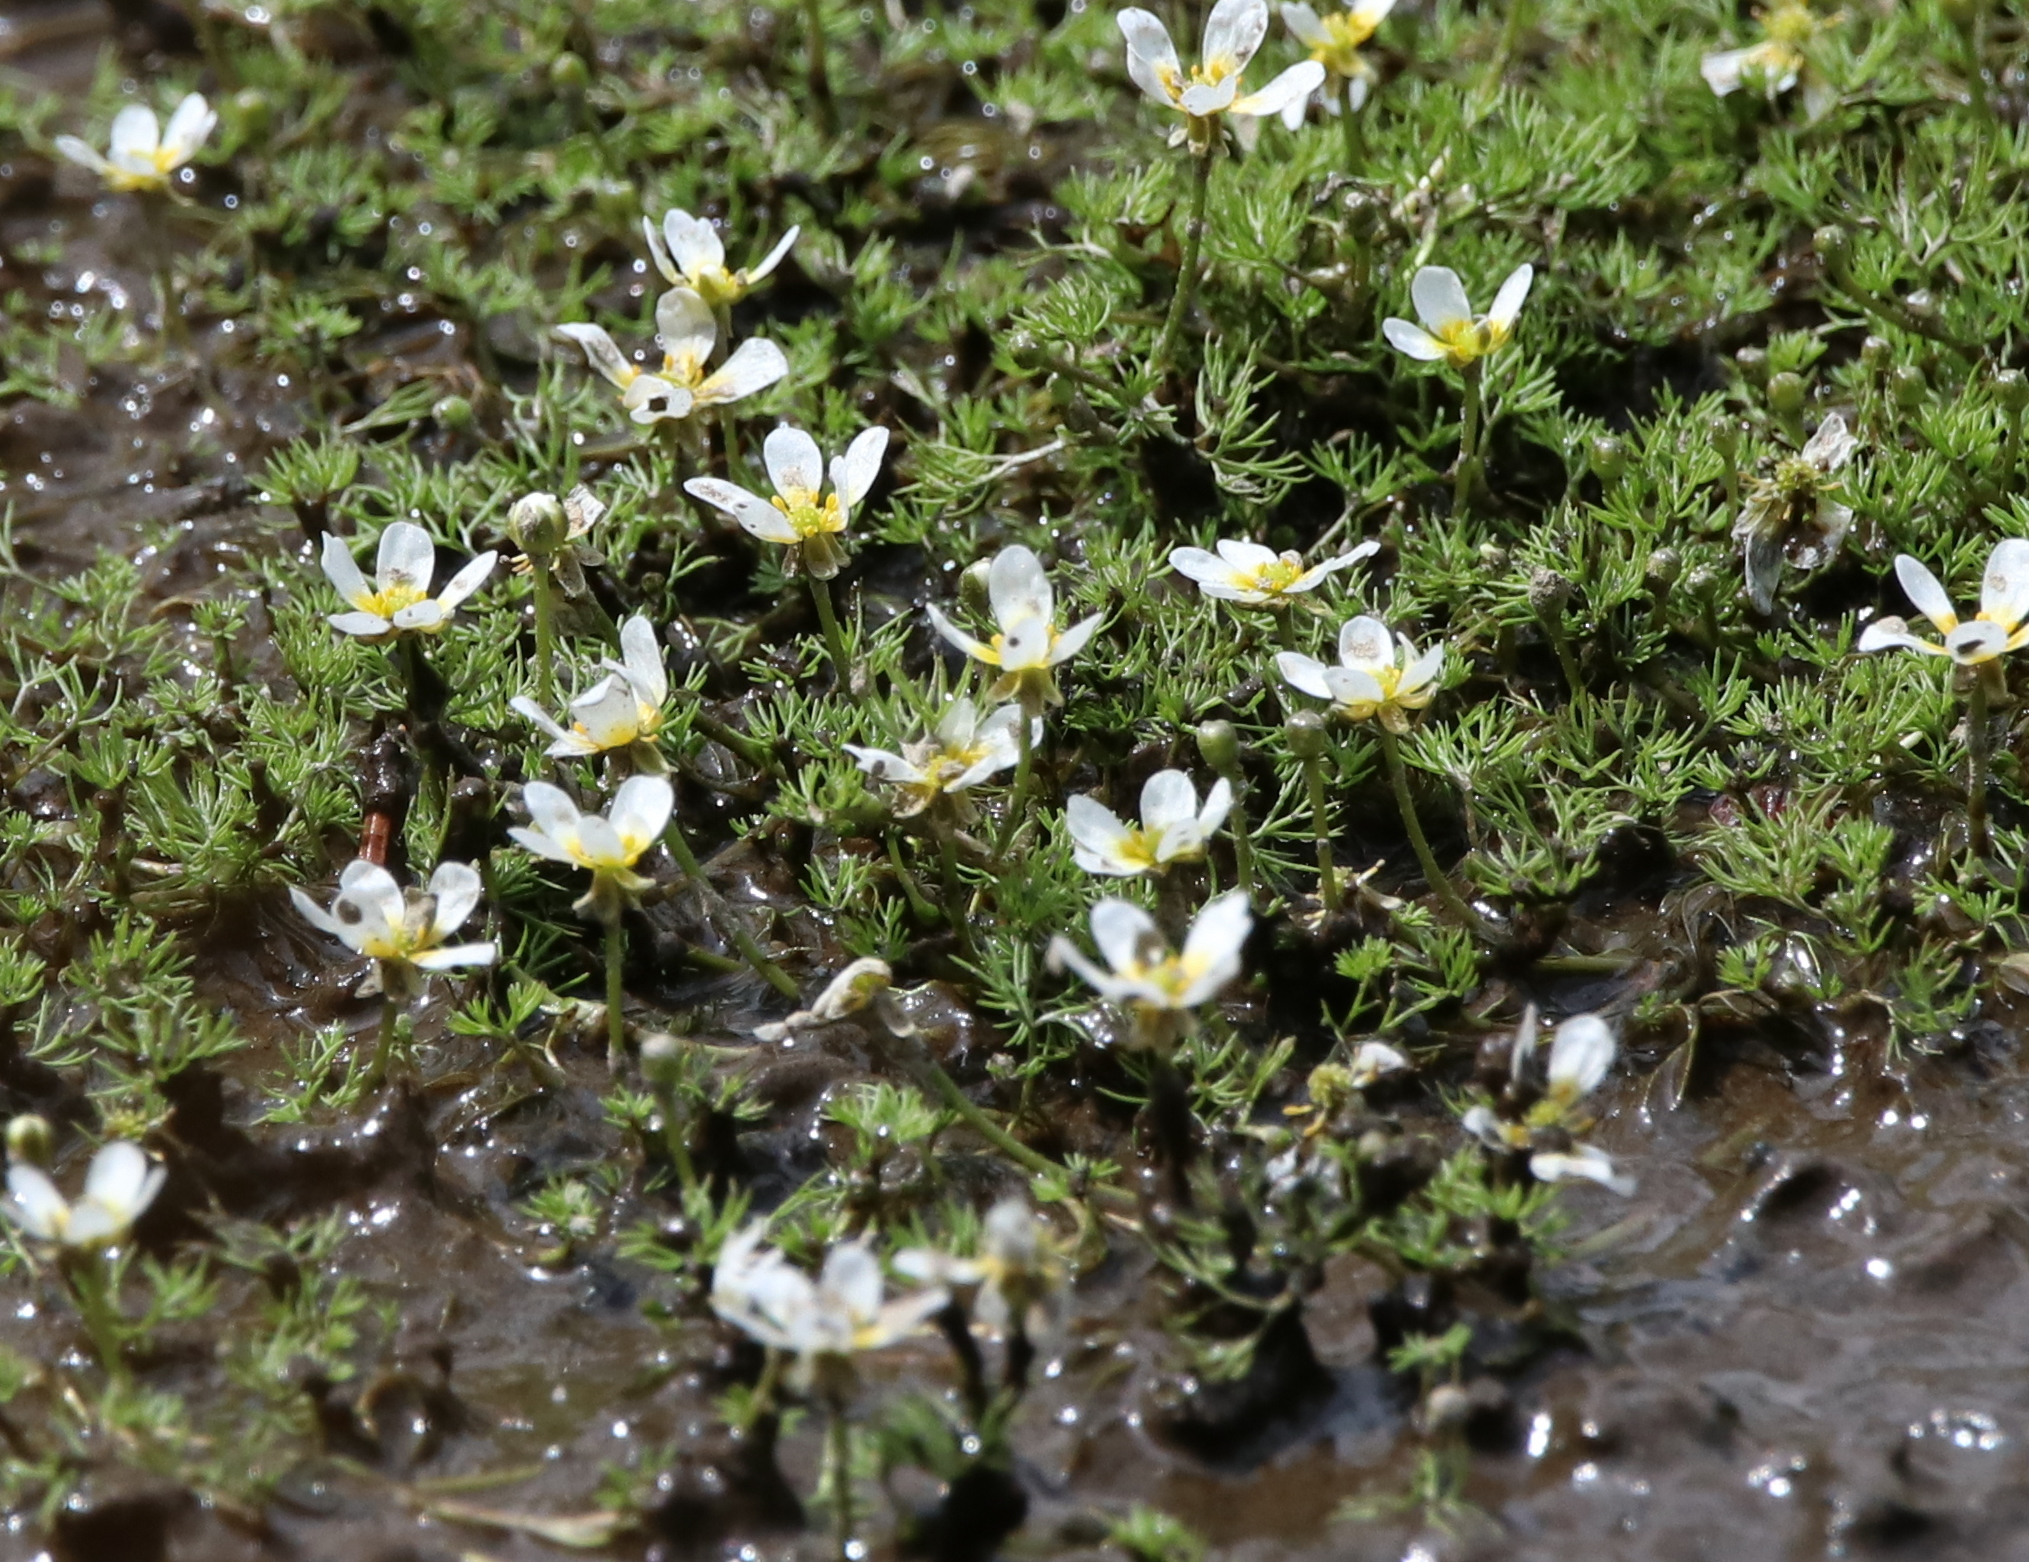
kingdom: Plantae
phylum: Tracheophyta
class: Magnoliopsida
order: Ranunculales
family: Ranunculaceae
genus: Ranunculus
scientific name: Ranunculus aquatilis
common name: Common water-crowfoot
